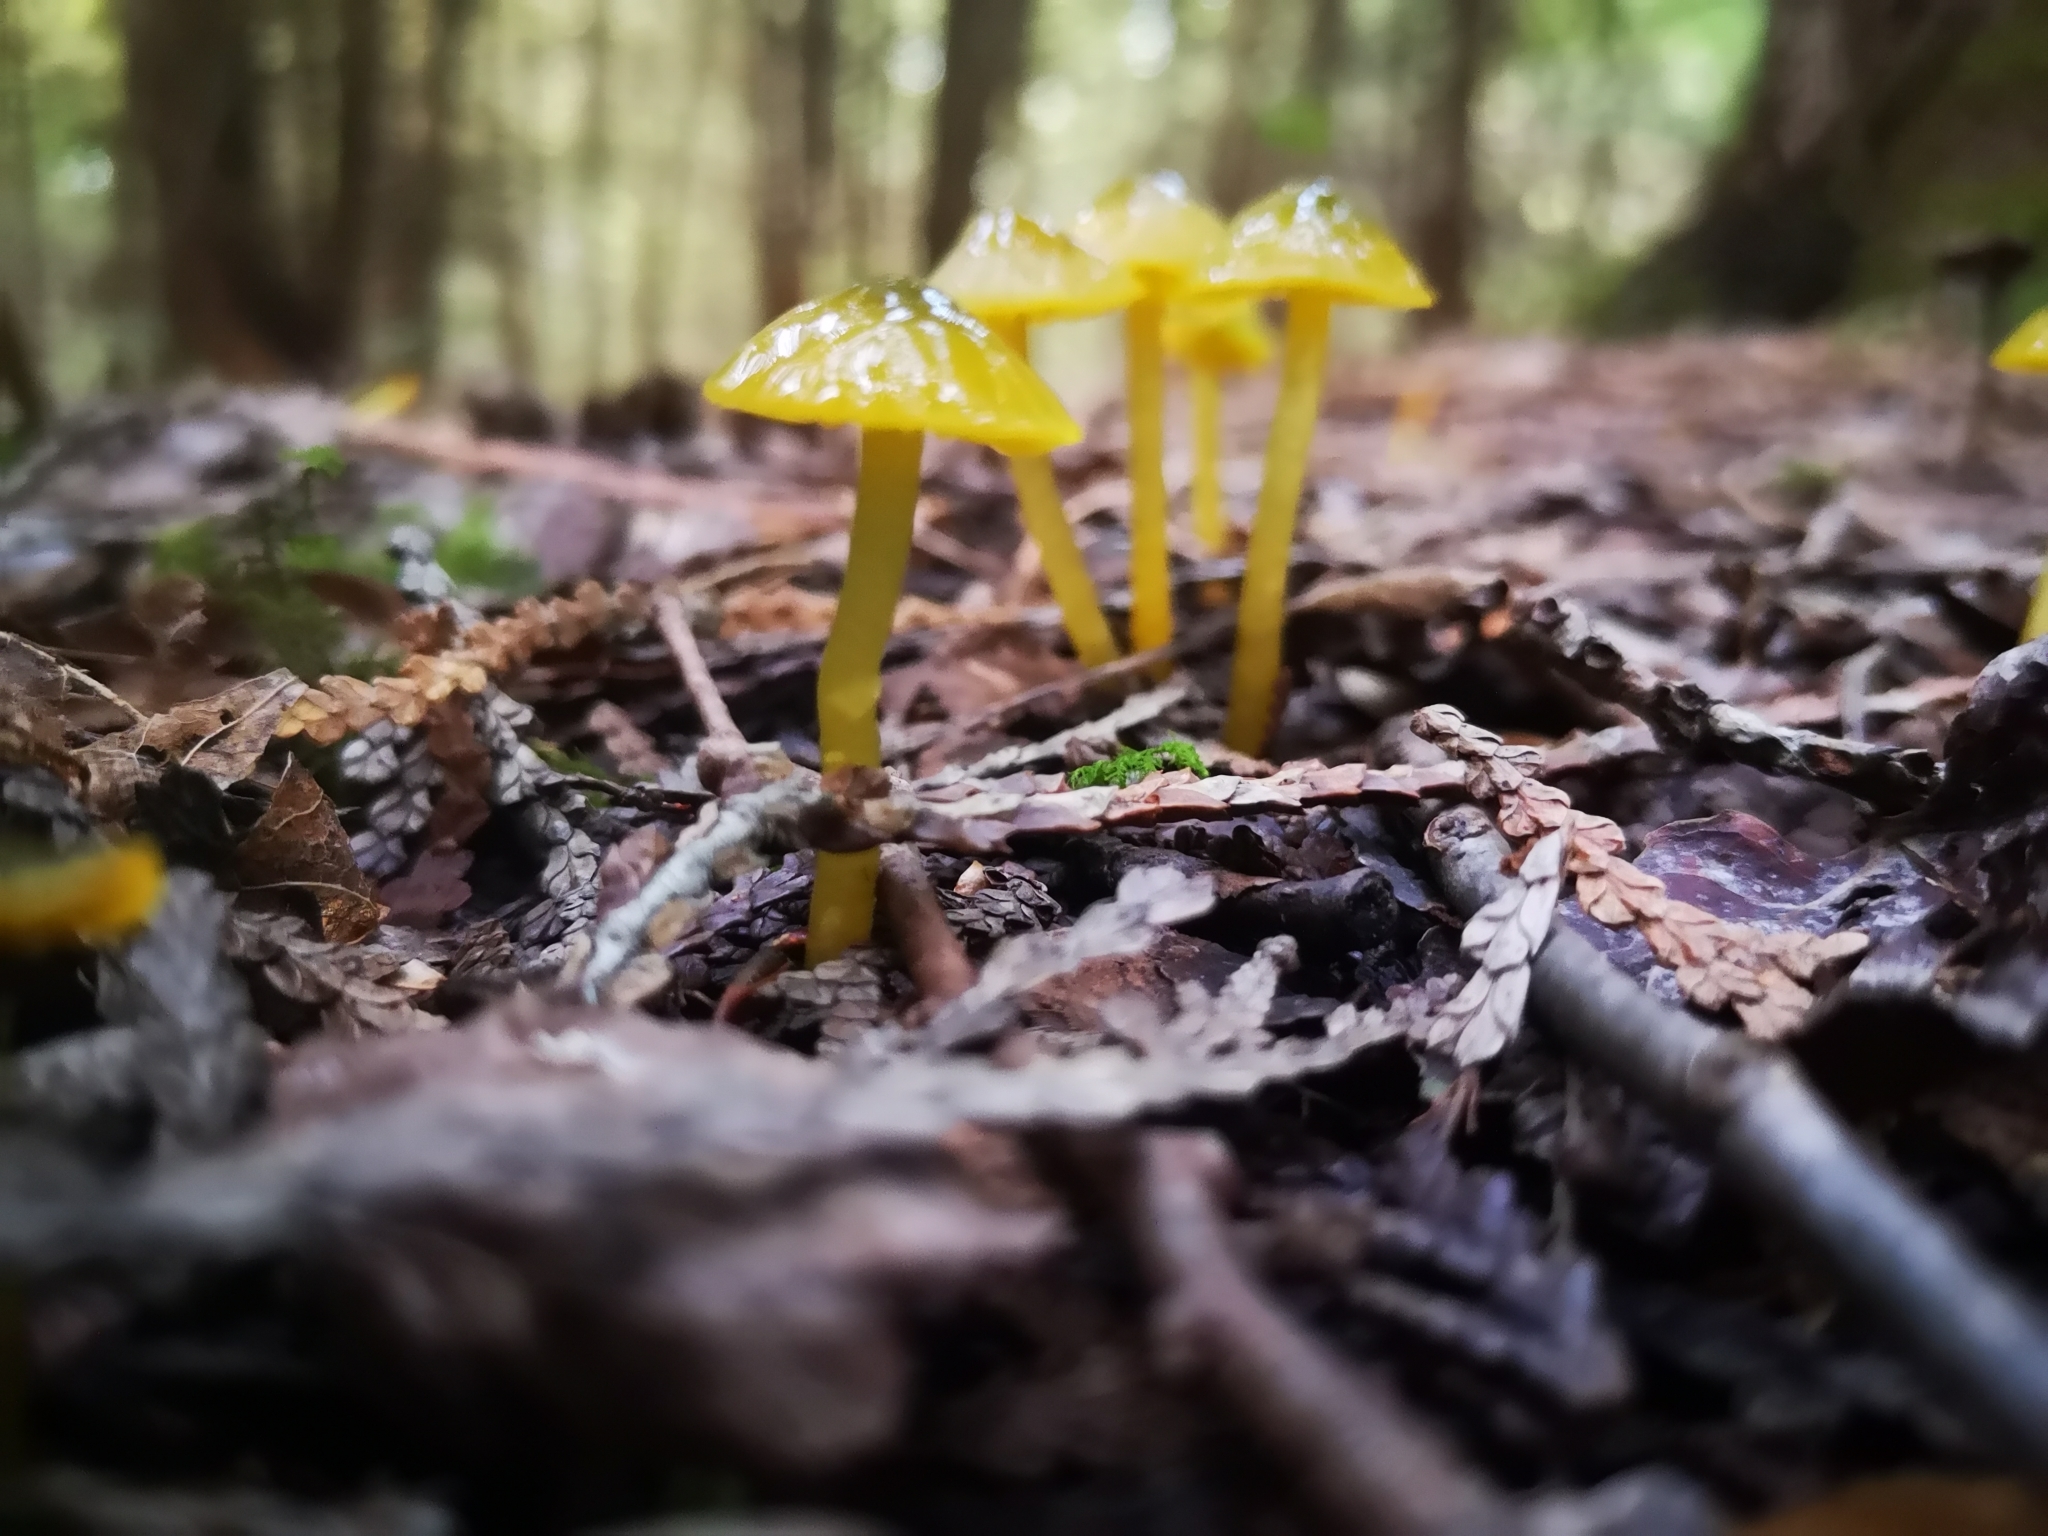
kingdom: Fungi
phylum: Basidiomycota
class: Agaricomycetes
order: Agaricales
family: Hygrophoraceae
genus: Gliophorus
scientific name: Gliophorus psittacinus
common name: Parrot wax-cap
